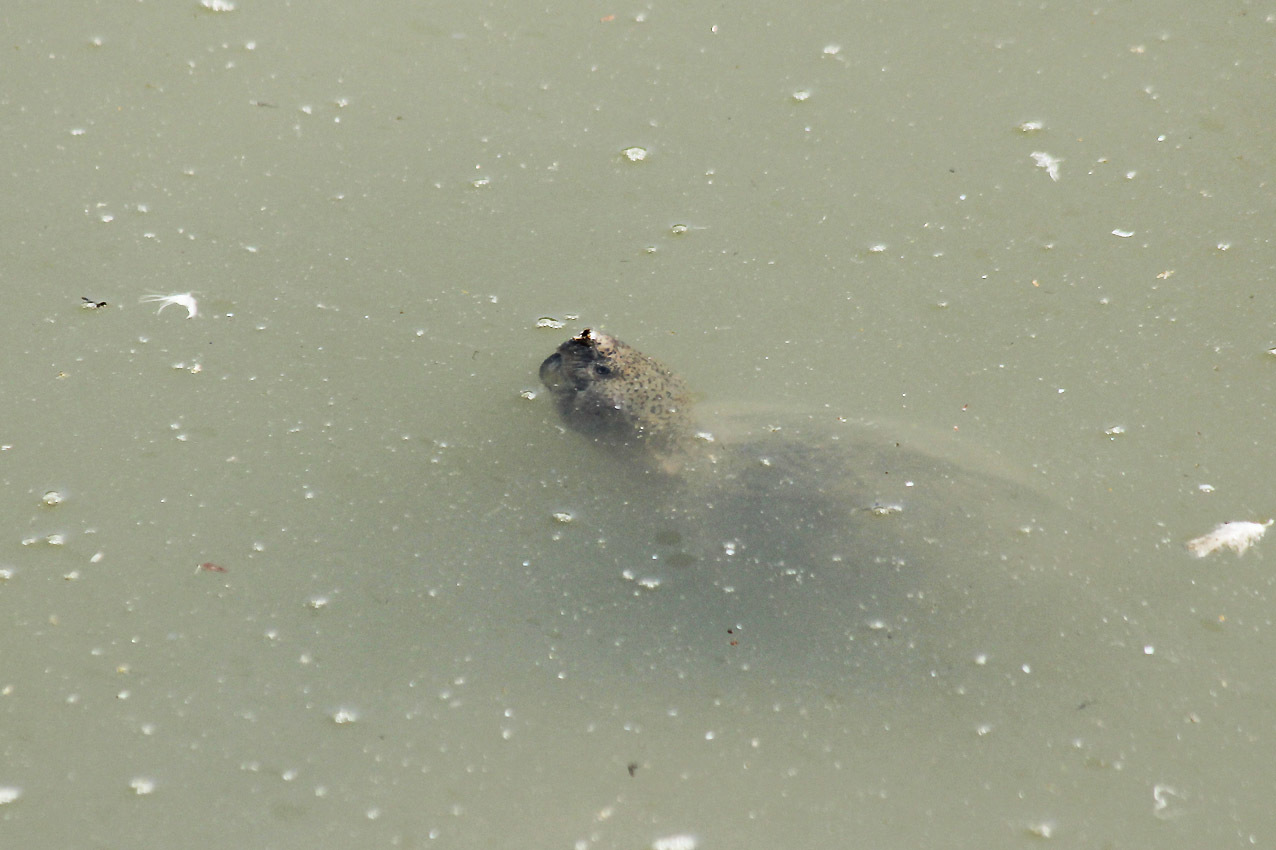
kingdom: Animalia
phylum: Chordata
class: Testudines
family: Kinosternidae
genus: Sternotherus
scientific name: Sternotherus carinatus
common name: Razor-backed musk turtle
